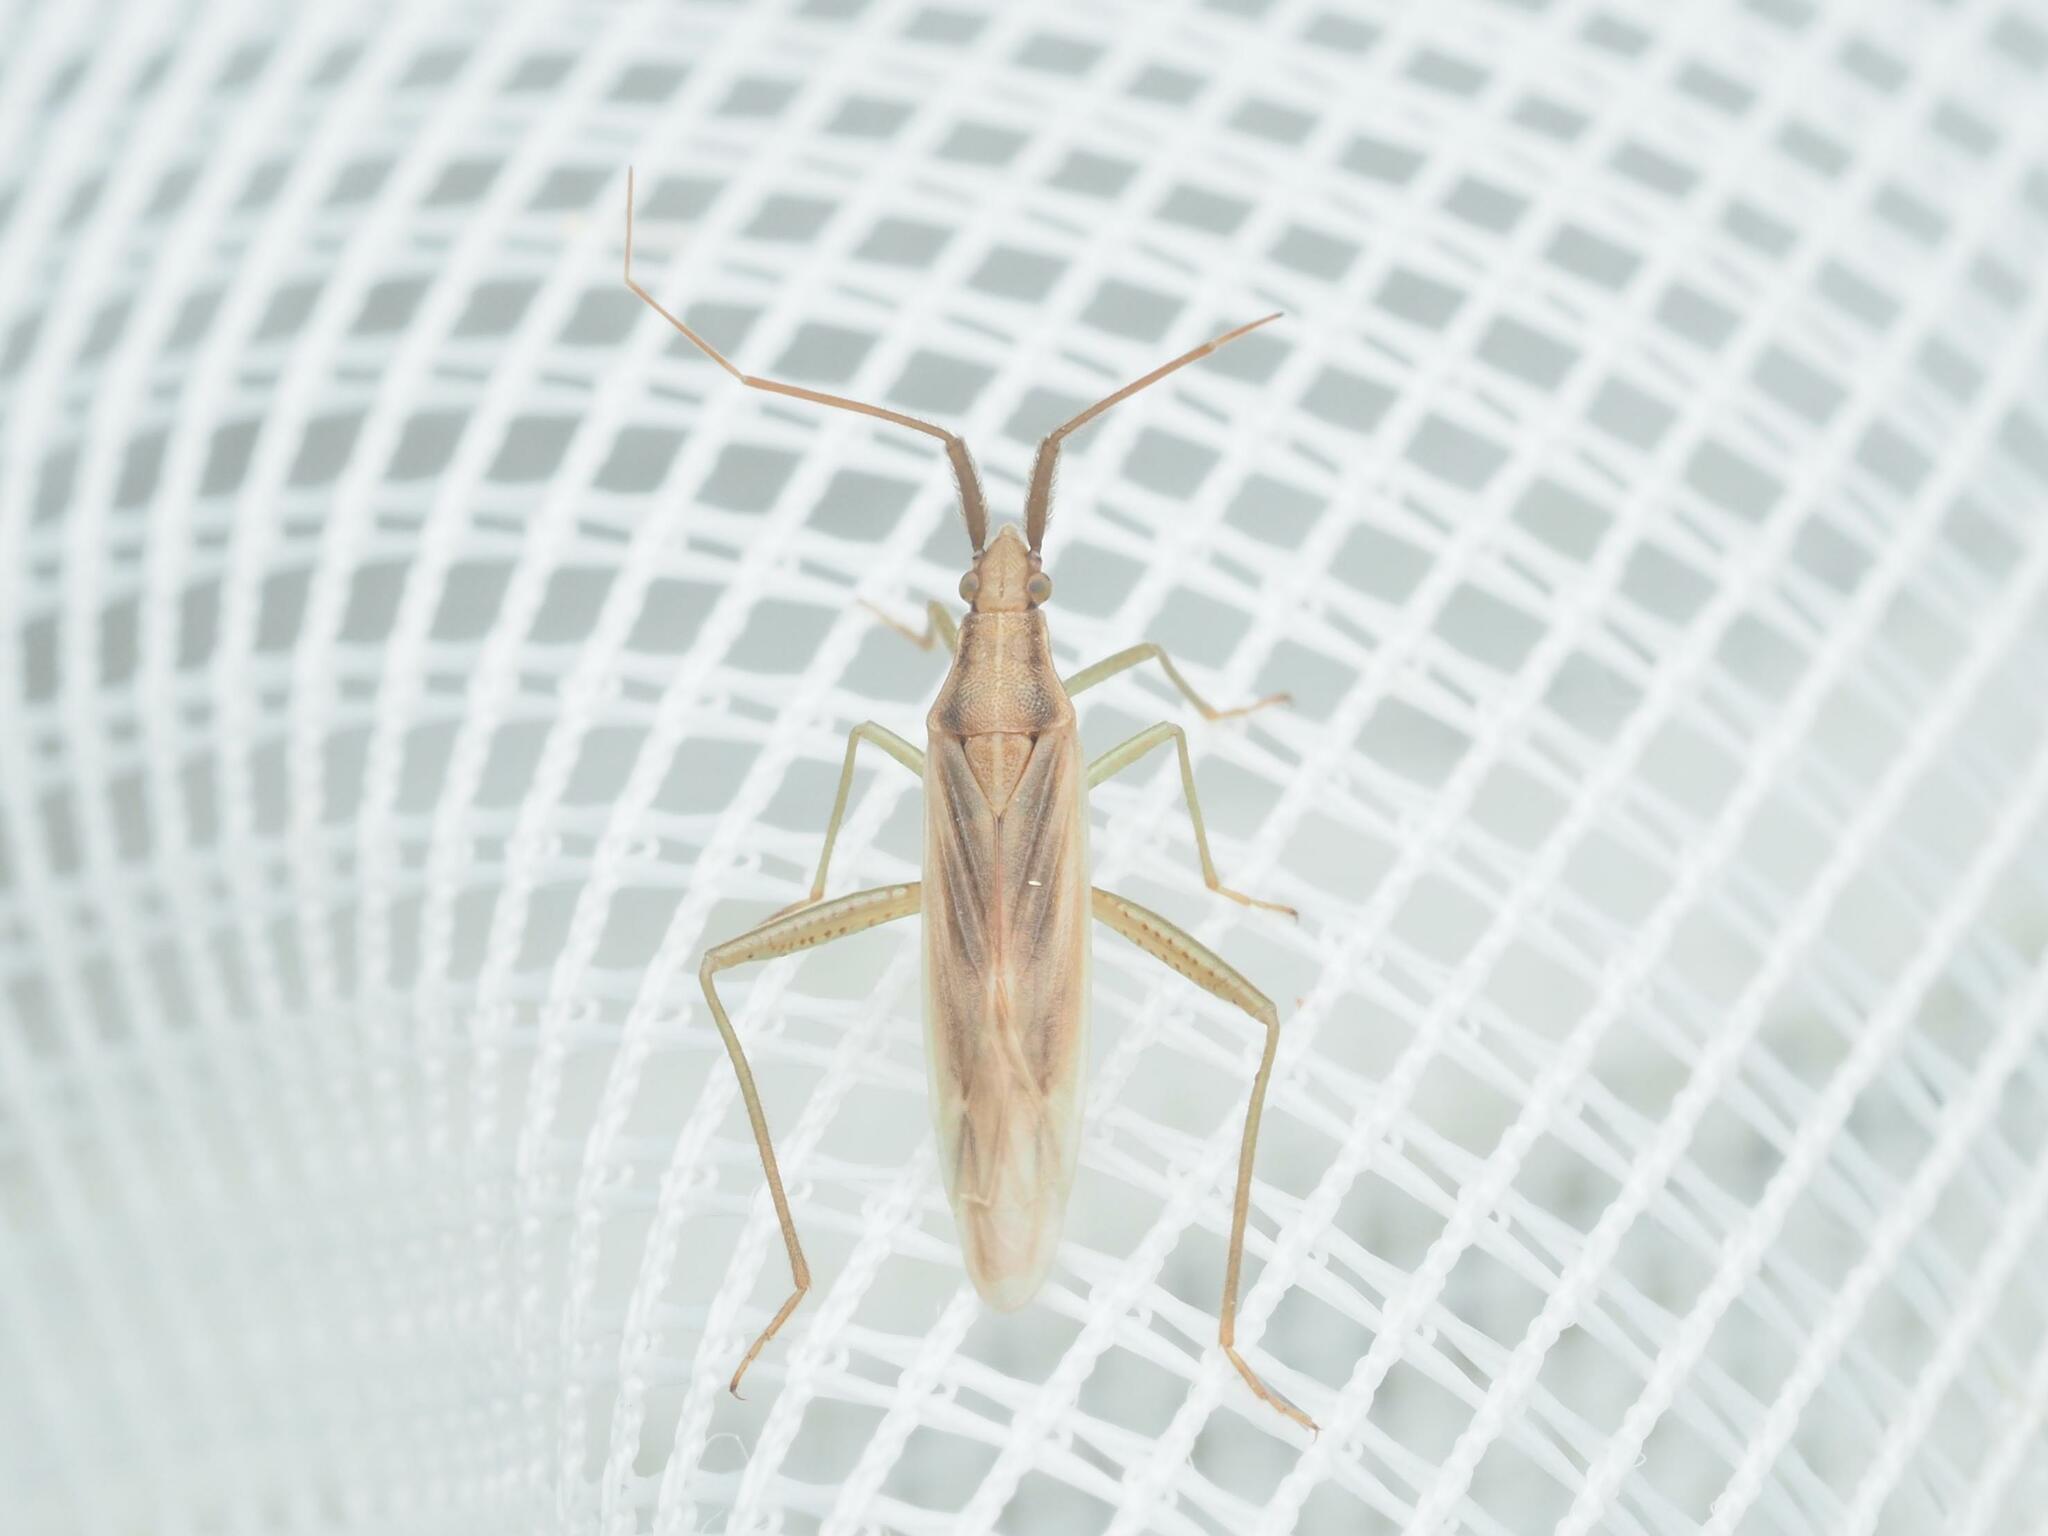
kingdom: Animalia
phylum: Arthropoda
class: Insecta
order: Hemiptera
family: Miridae
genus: Stenodema
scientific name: Stenodema laevigata
